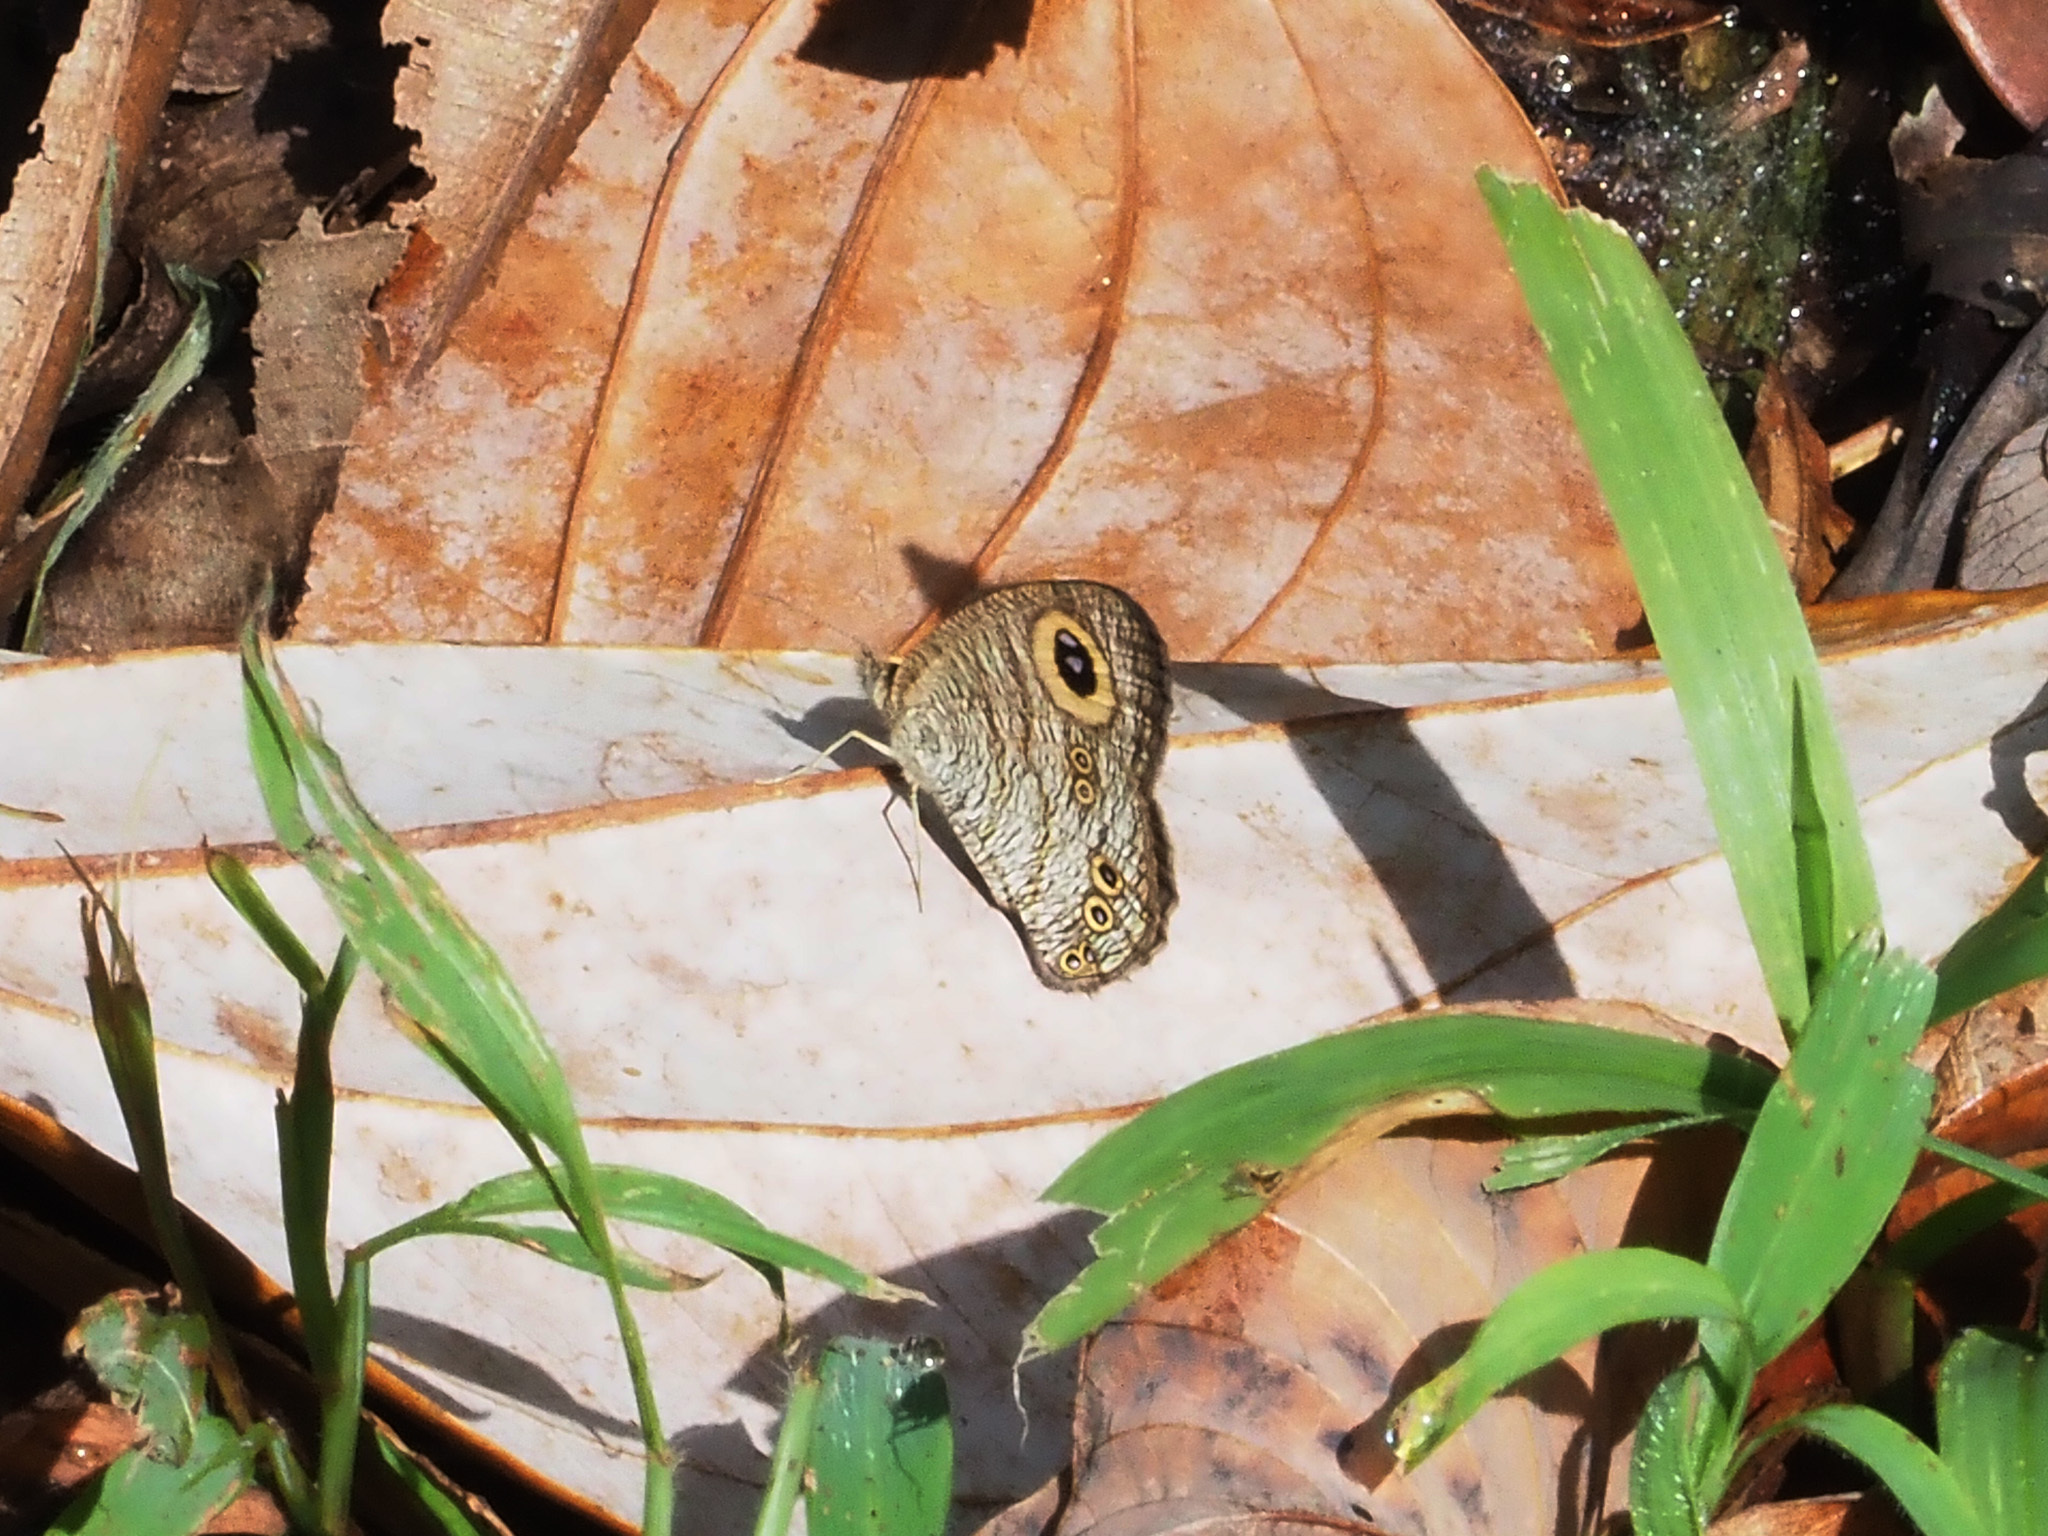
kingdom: Animalia
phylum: Arthropoda
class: Insecta
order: Lepidoptera
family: Nymphalidae
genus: Ypthima
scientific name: Ypthima baldus
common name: Common five-ring
